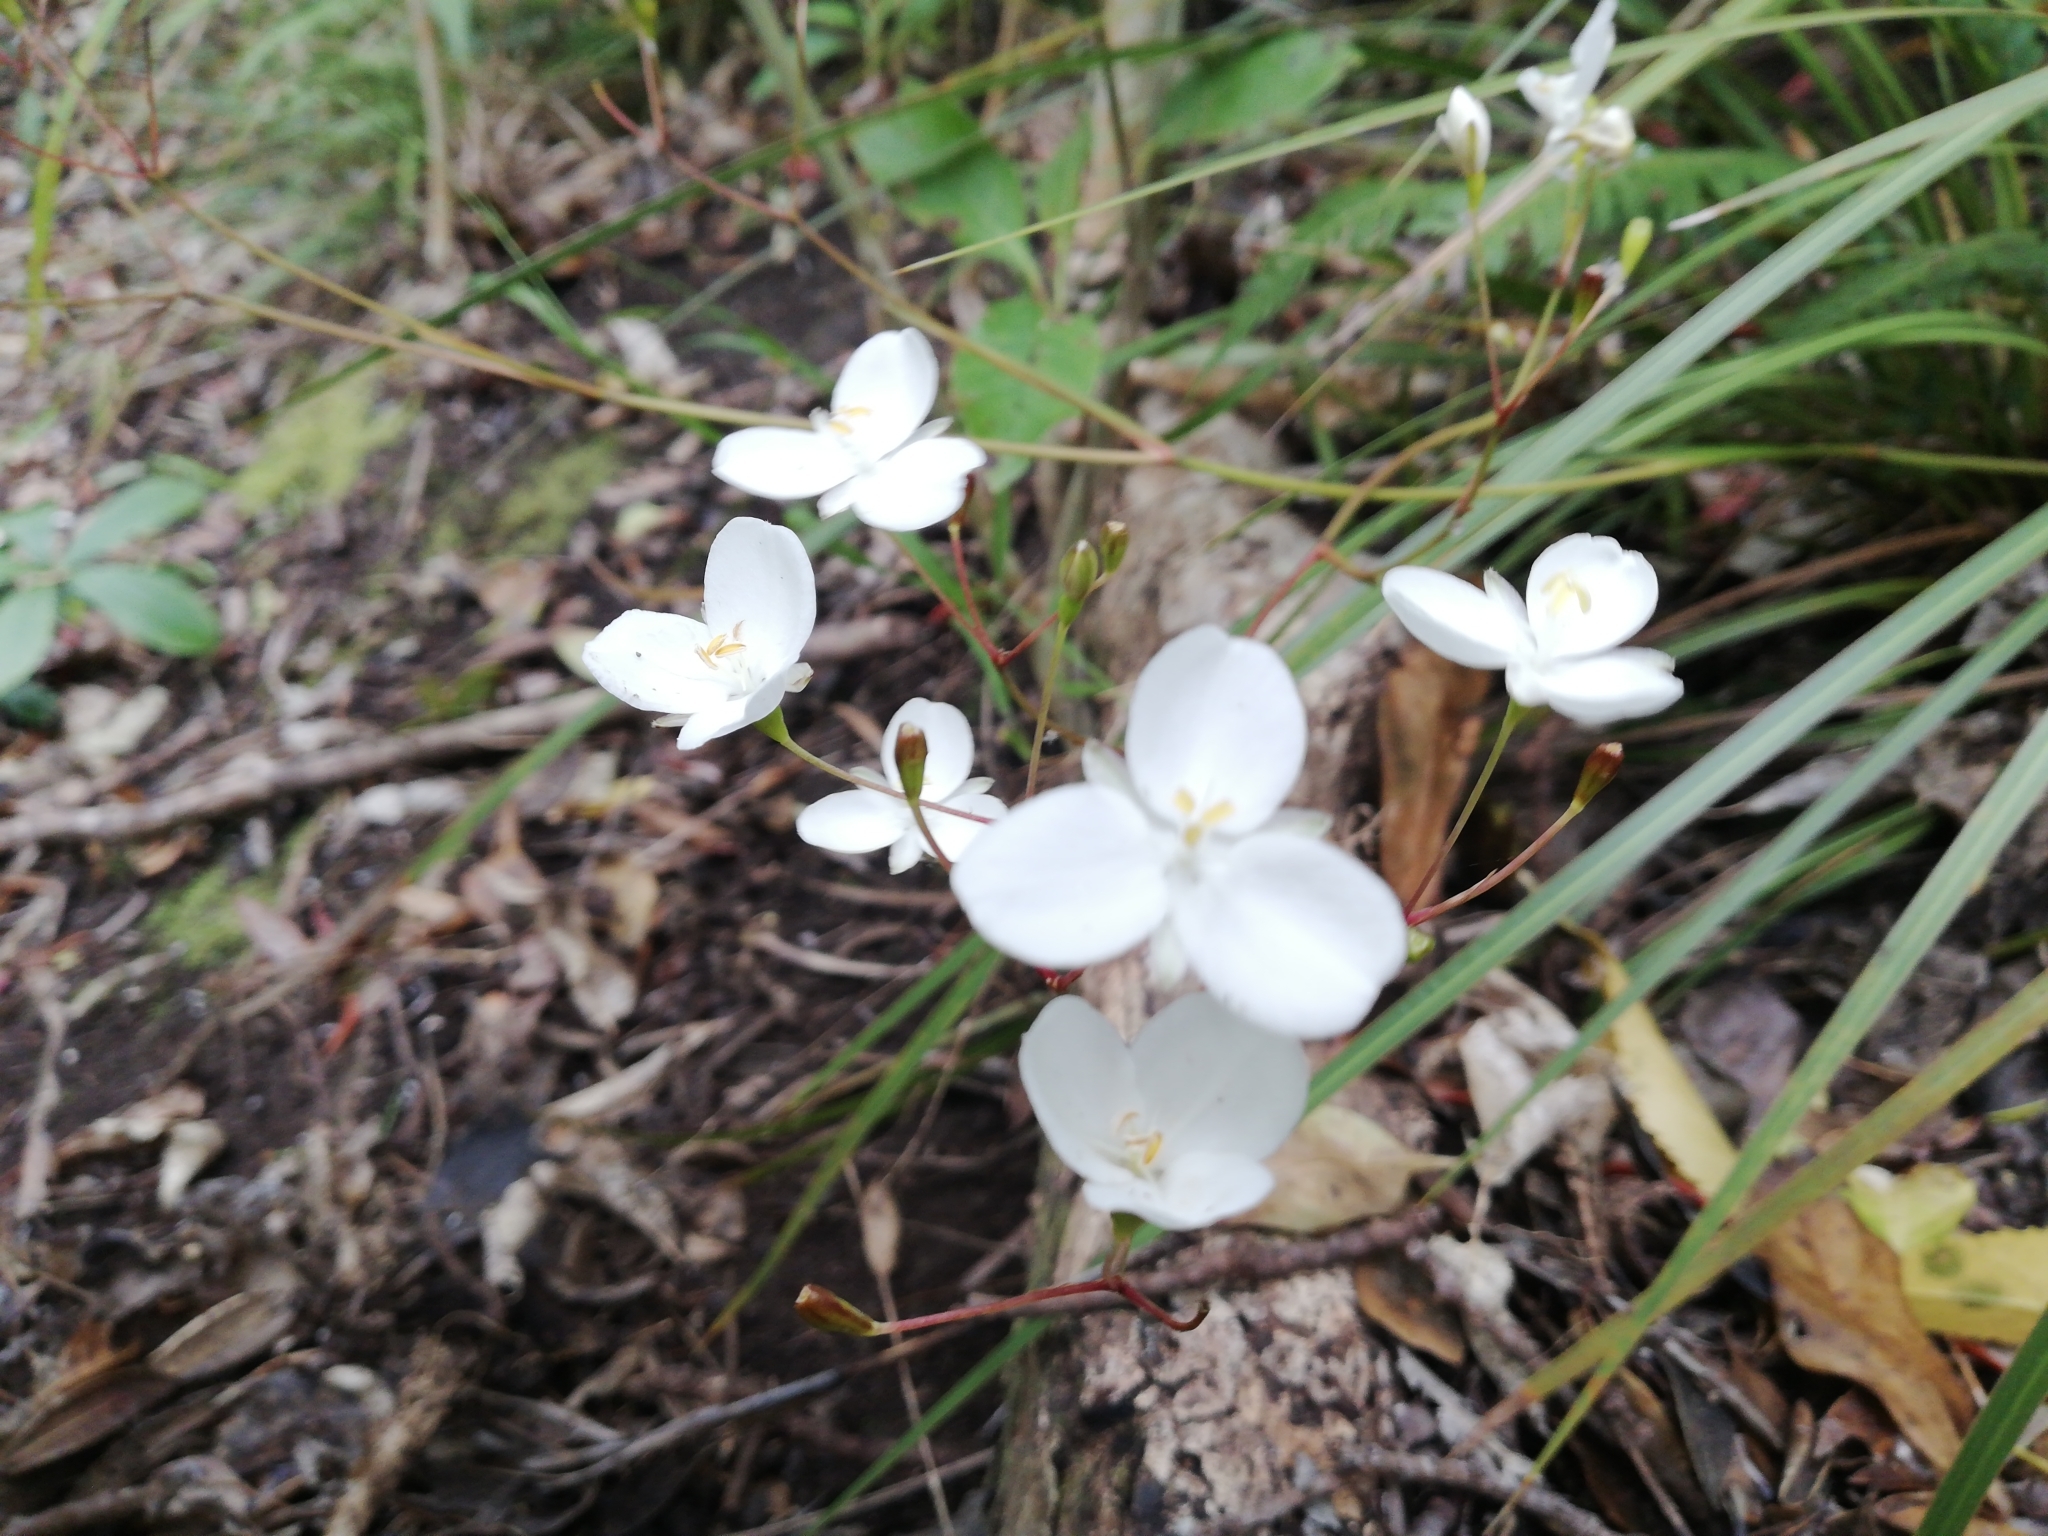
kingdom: Plantae
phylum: Tracheophyta
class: Liliopsida
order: Asparagales
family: Iridaceae
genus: Libertia
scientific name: Libertia ixioides
